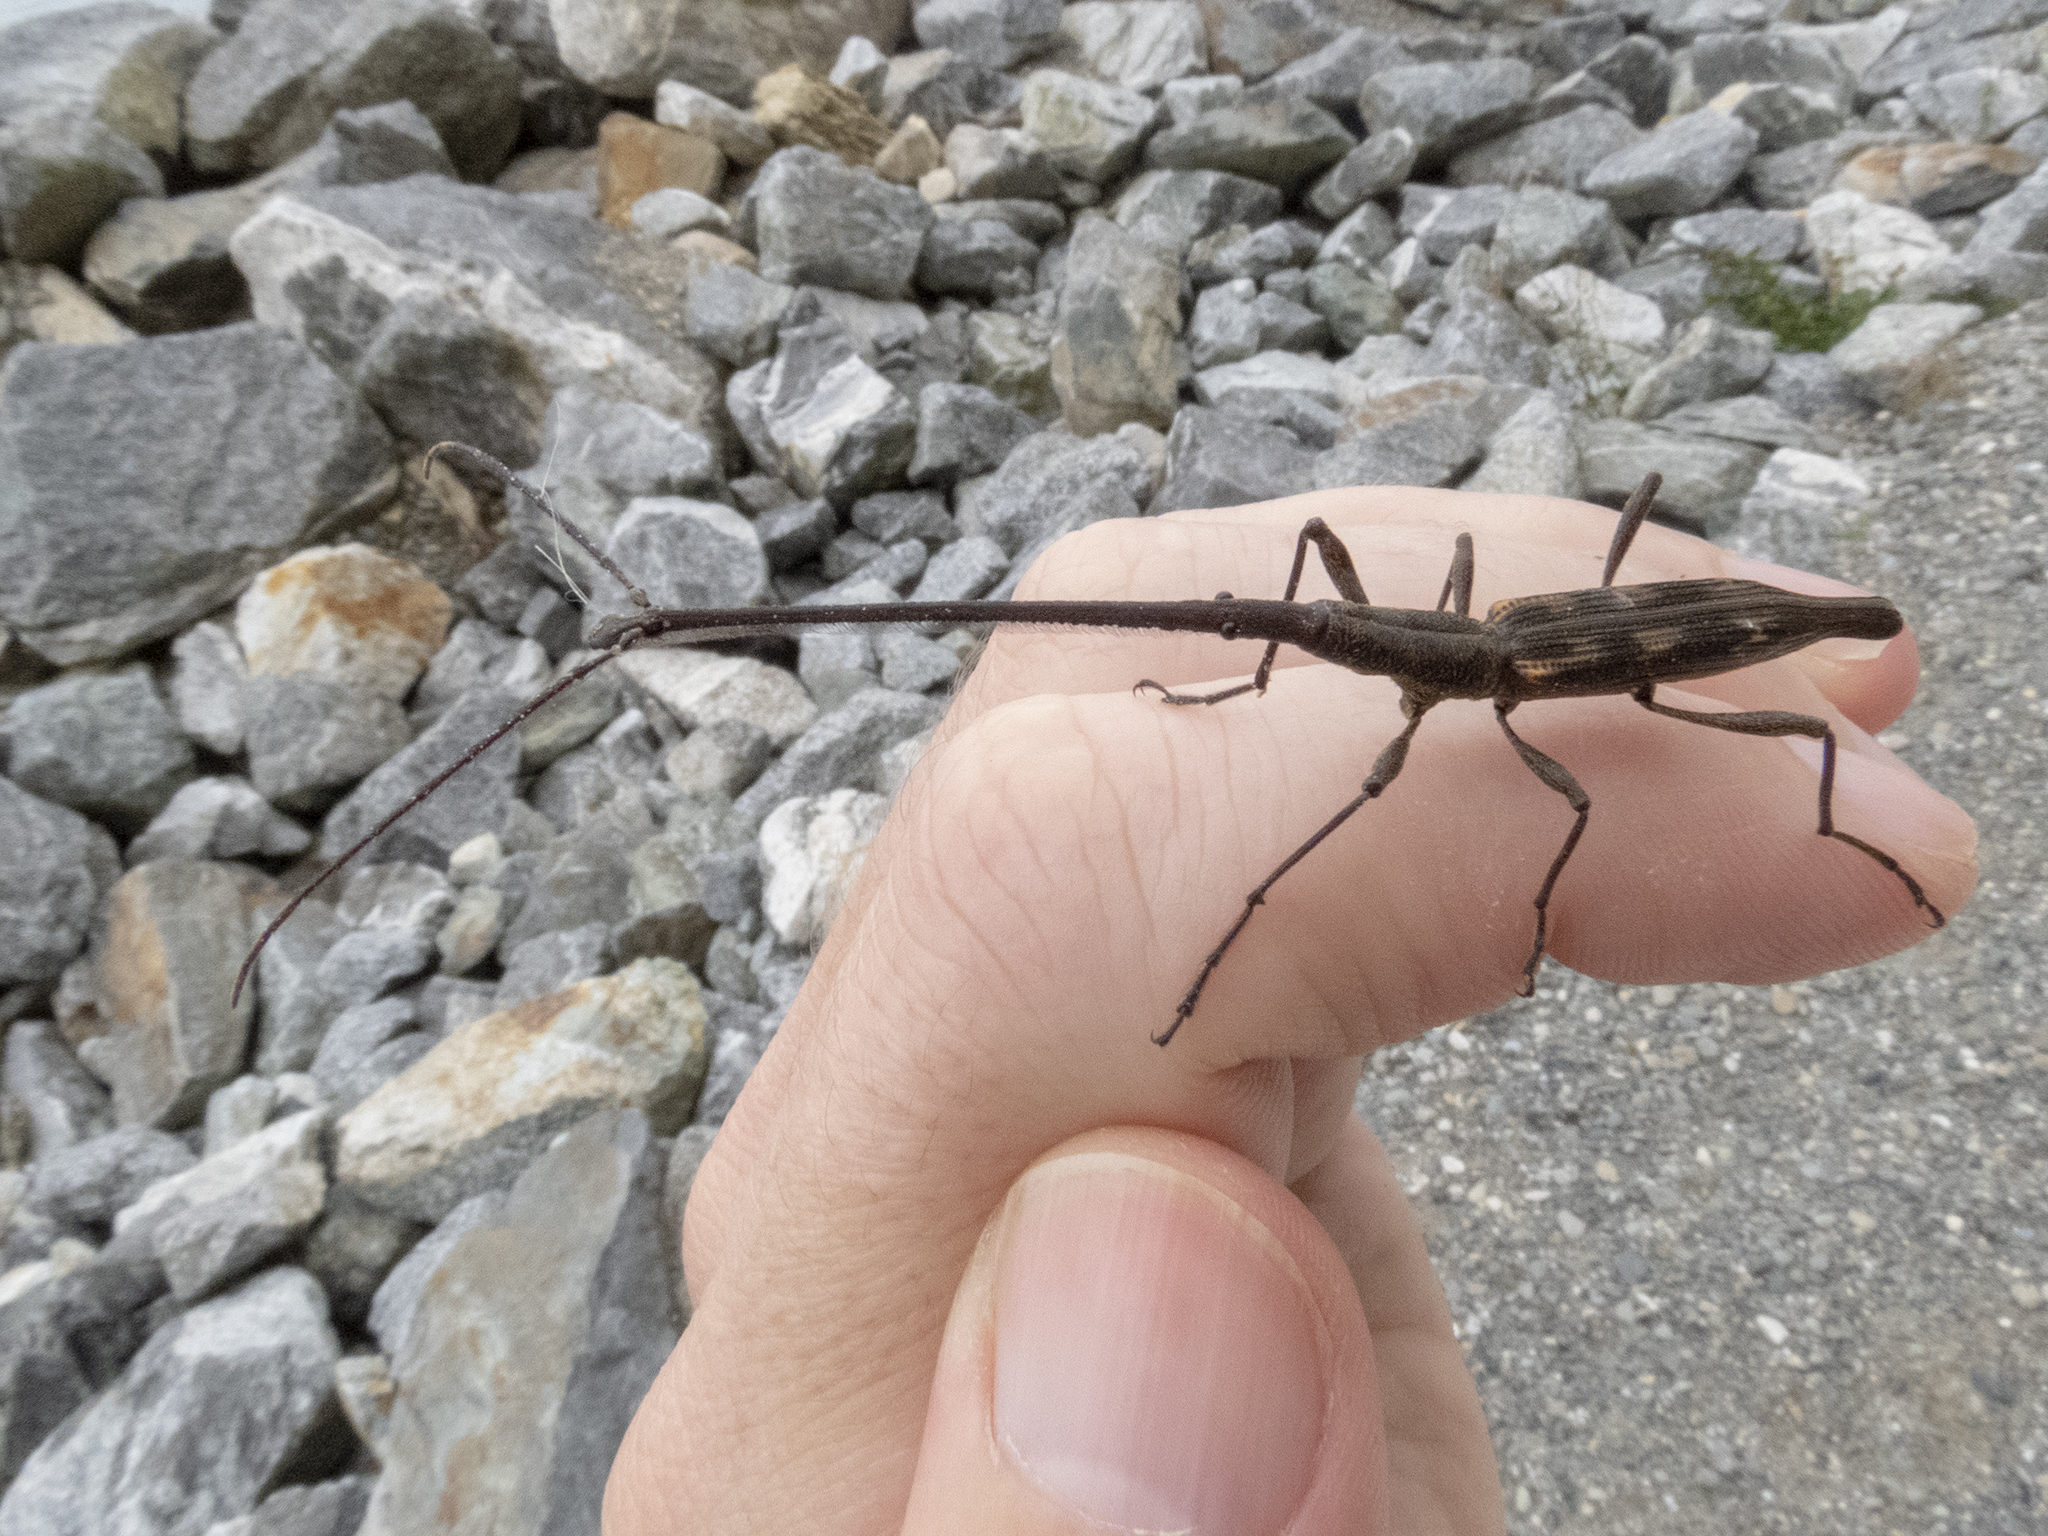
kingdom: Animalia
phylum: Arthropoda
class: Insecta
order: Coleoptera
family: Brentidae
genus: Lasiorhynchus
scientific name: Lasiorhynchus barbicornis
